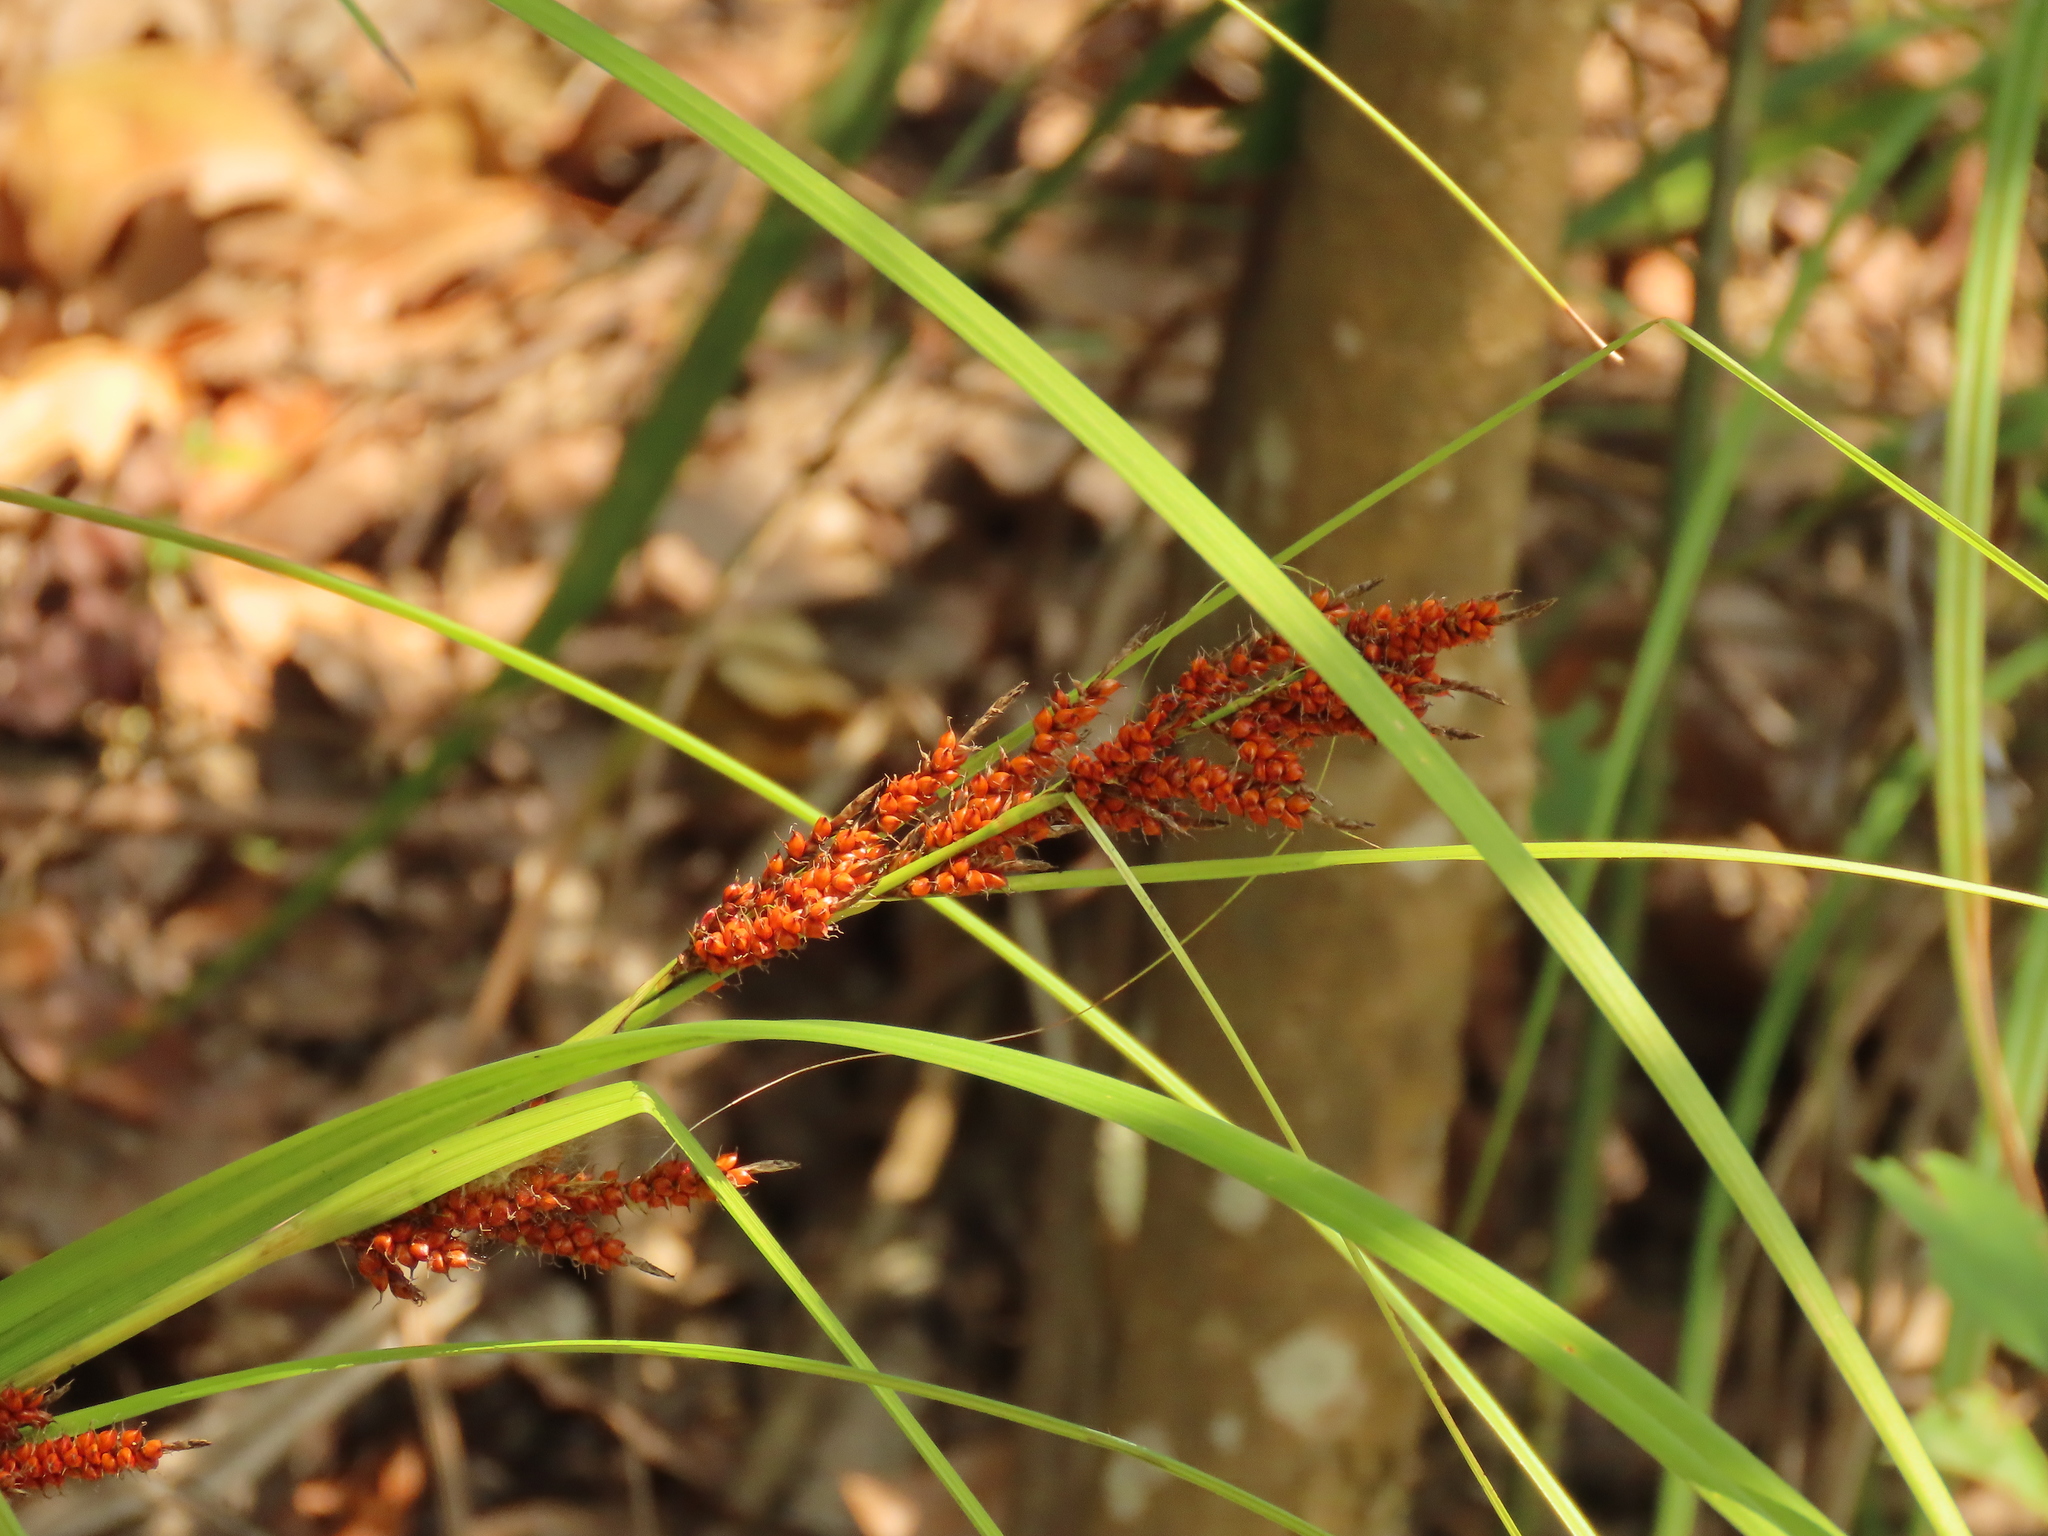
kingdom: Plantae
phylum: Tracheophyta
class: Liliopsida
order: Poales
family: Cyperaceae
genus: Carex
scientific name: Carex baccans
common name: Crimson seeded sedge
